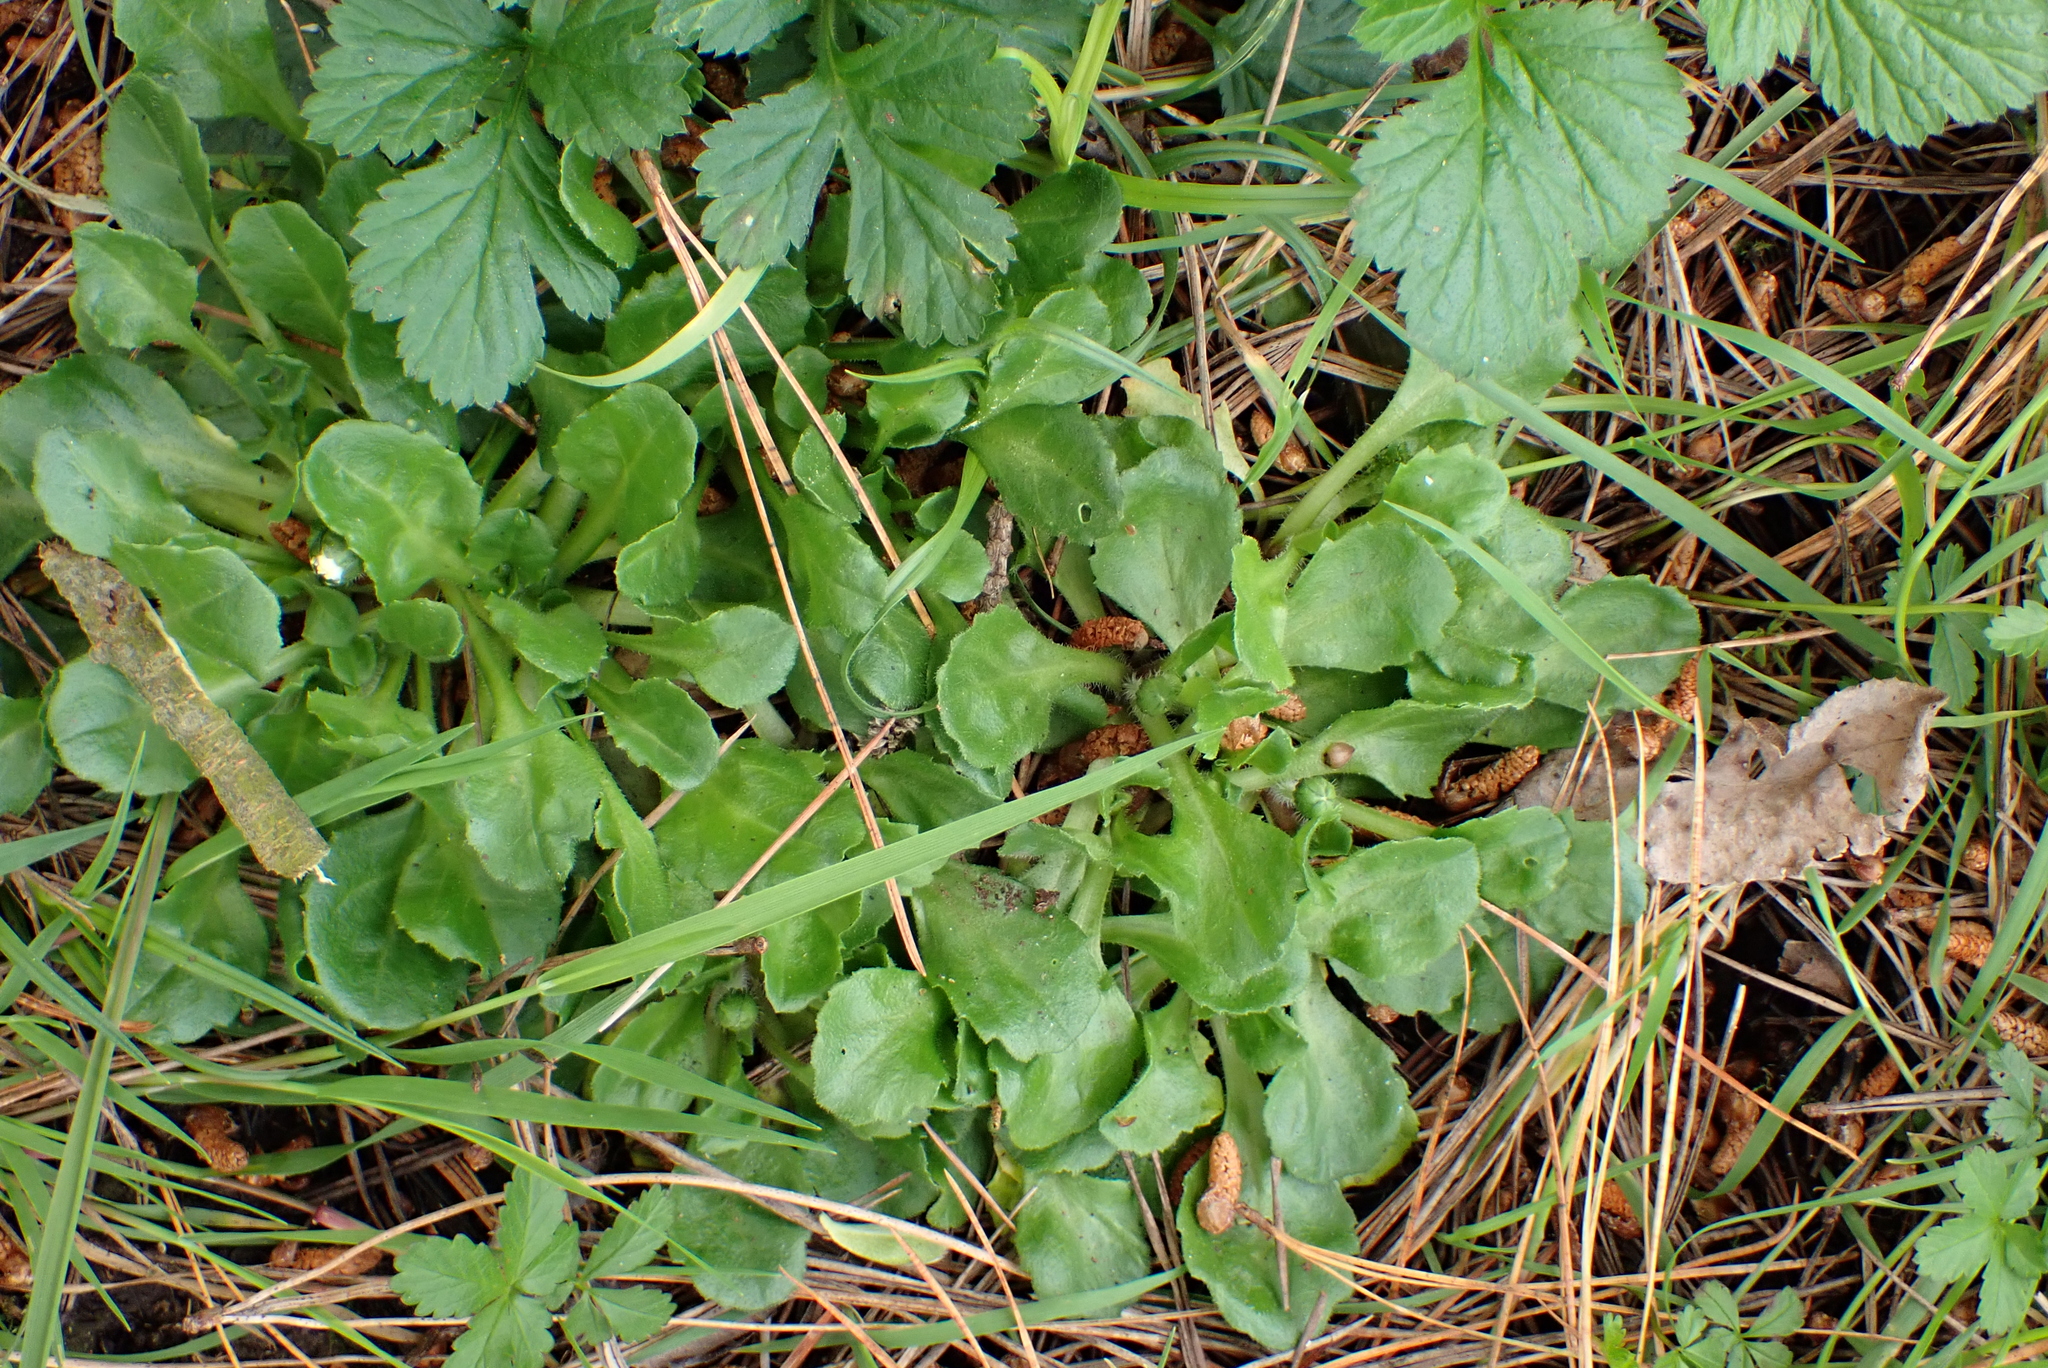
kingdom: Plantae
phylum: Tracheophyta
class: Magnoliopsida
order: Asterales
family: Asteraceae
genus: Bellis
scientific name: Bellis perennis
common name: Lawndaisy
